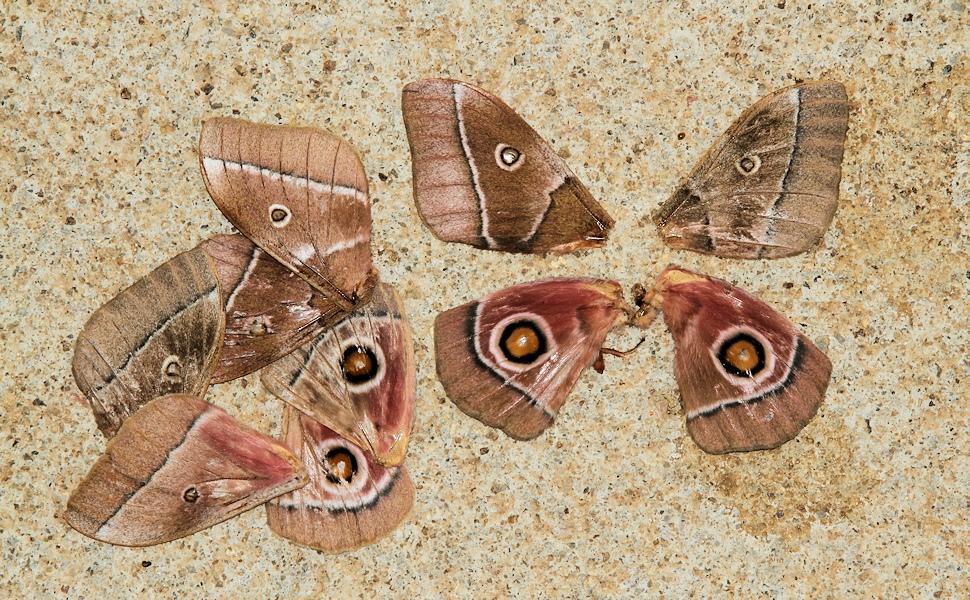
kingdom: Animalia
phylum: Arthropoda
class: Insecta
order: Lepidoptera
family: Saturniidae
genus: Gonimbrasia
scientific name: Gonimbrasia belina
